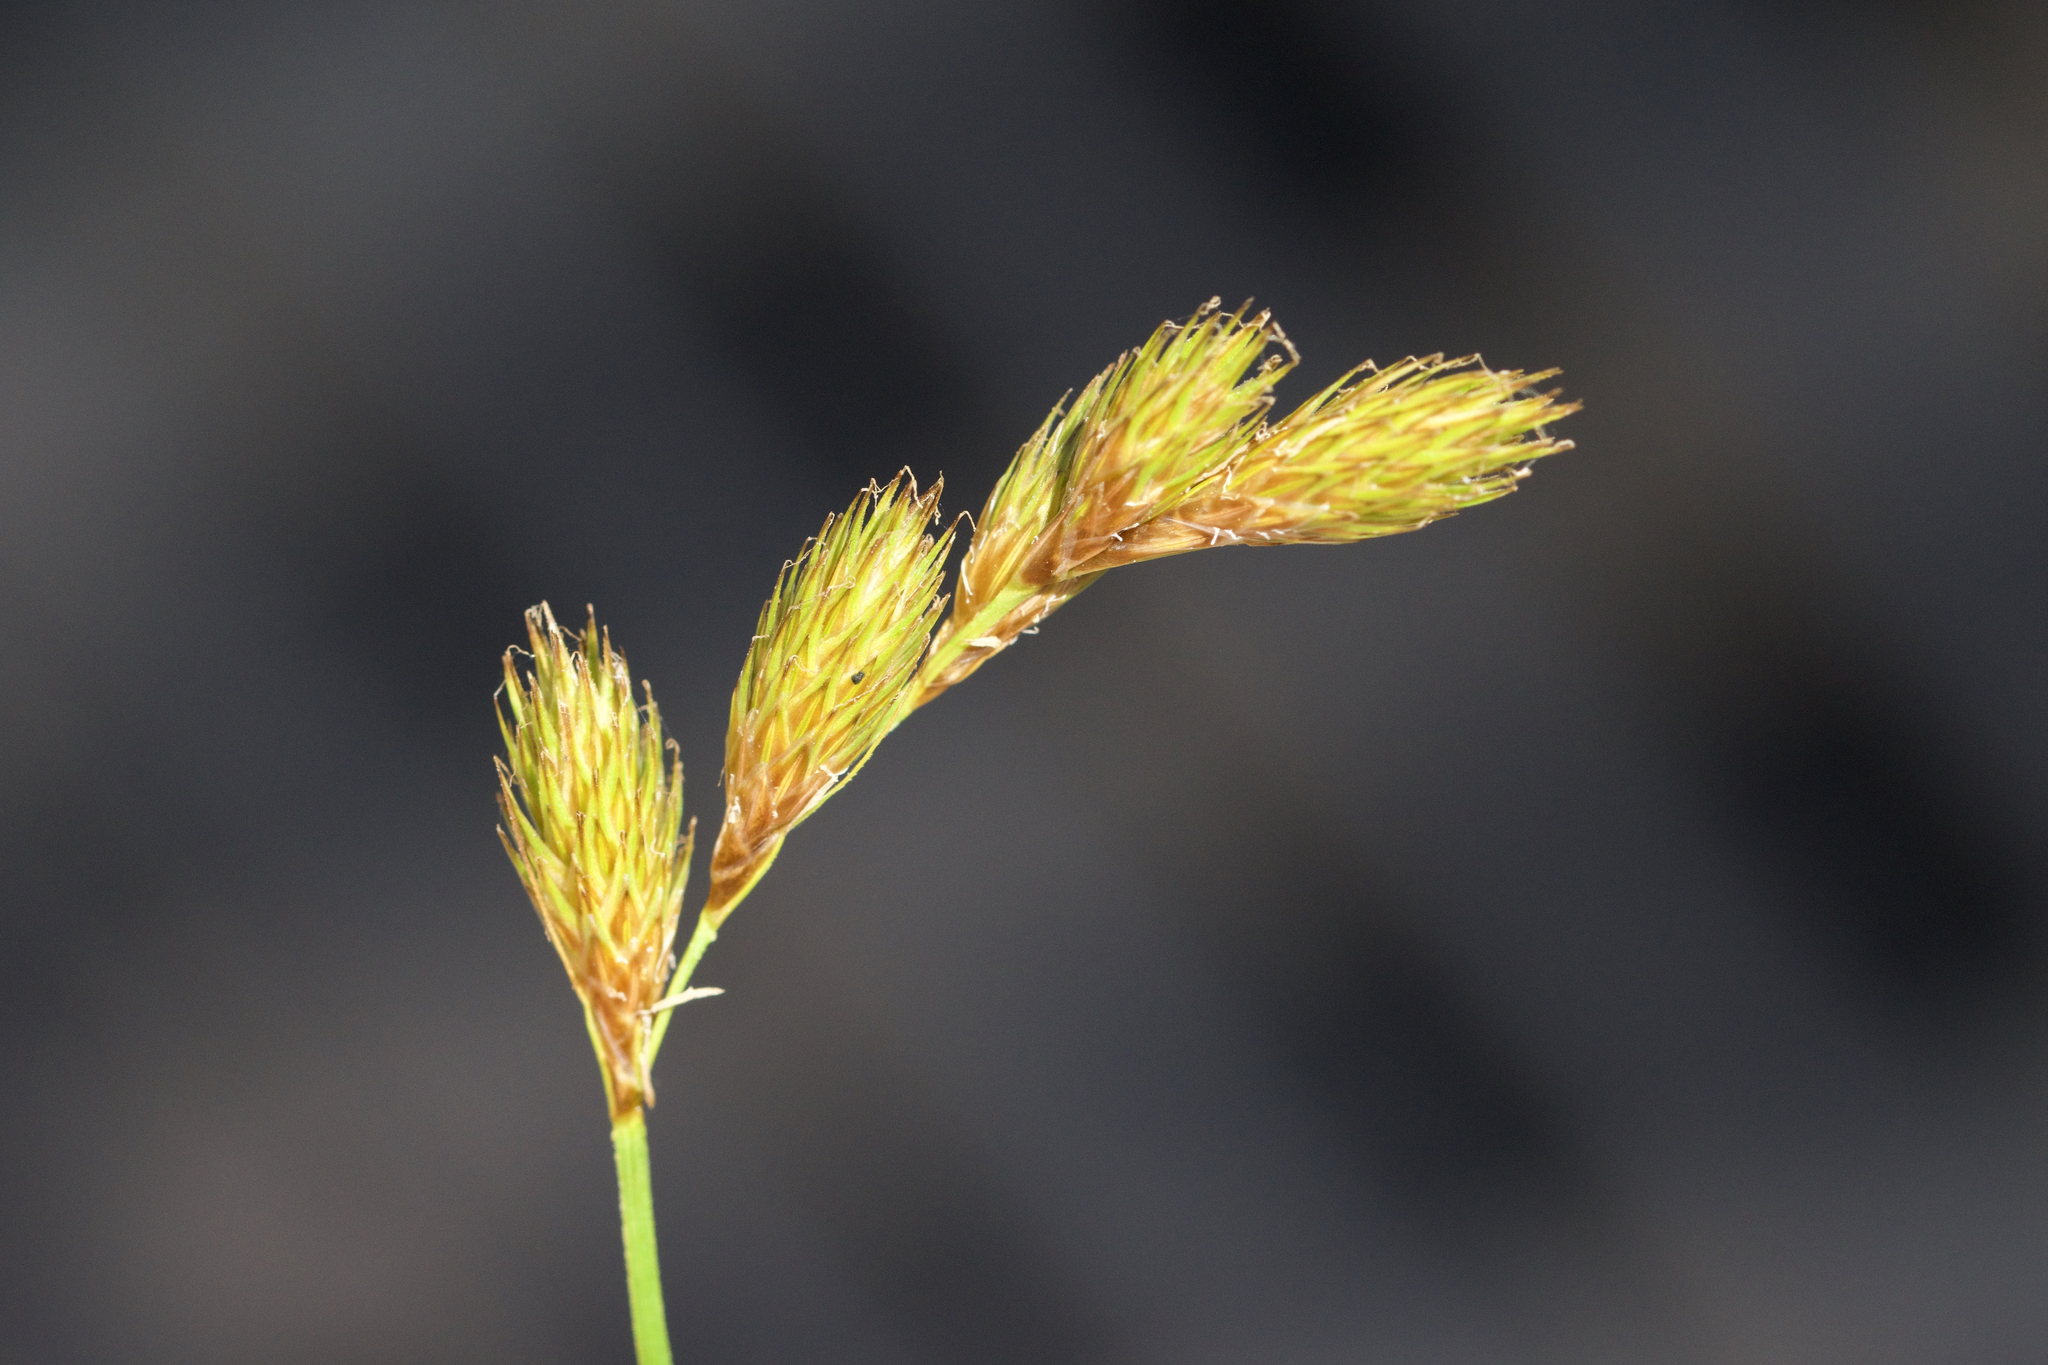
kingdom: Plantae
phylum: Tracheophyta
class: Liliopsida
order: Poales
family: Cyperaceae
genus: Carex
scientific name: Carex scoparia
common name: Broom sedge
